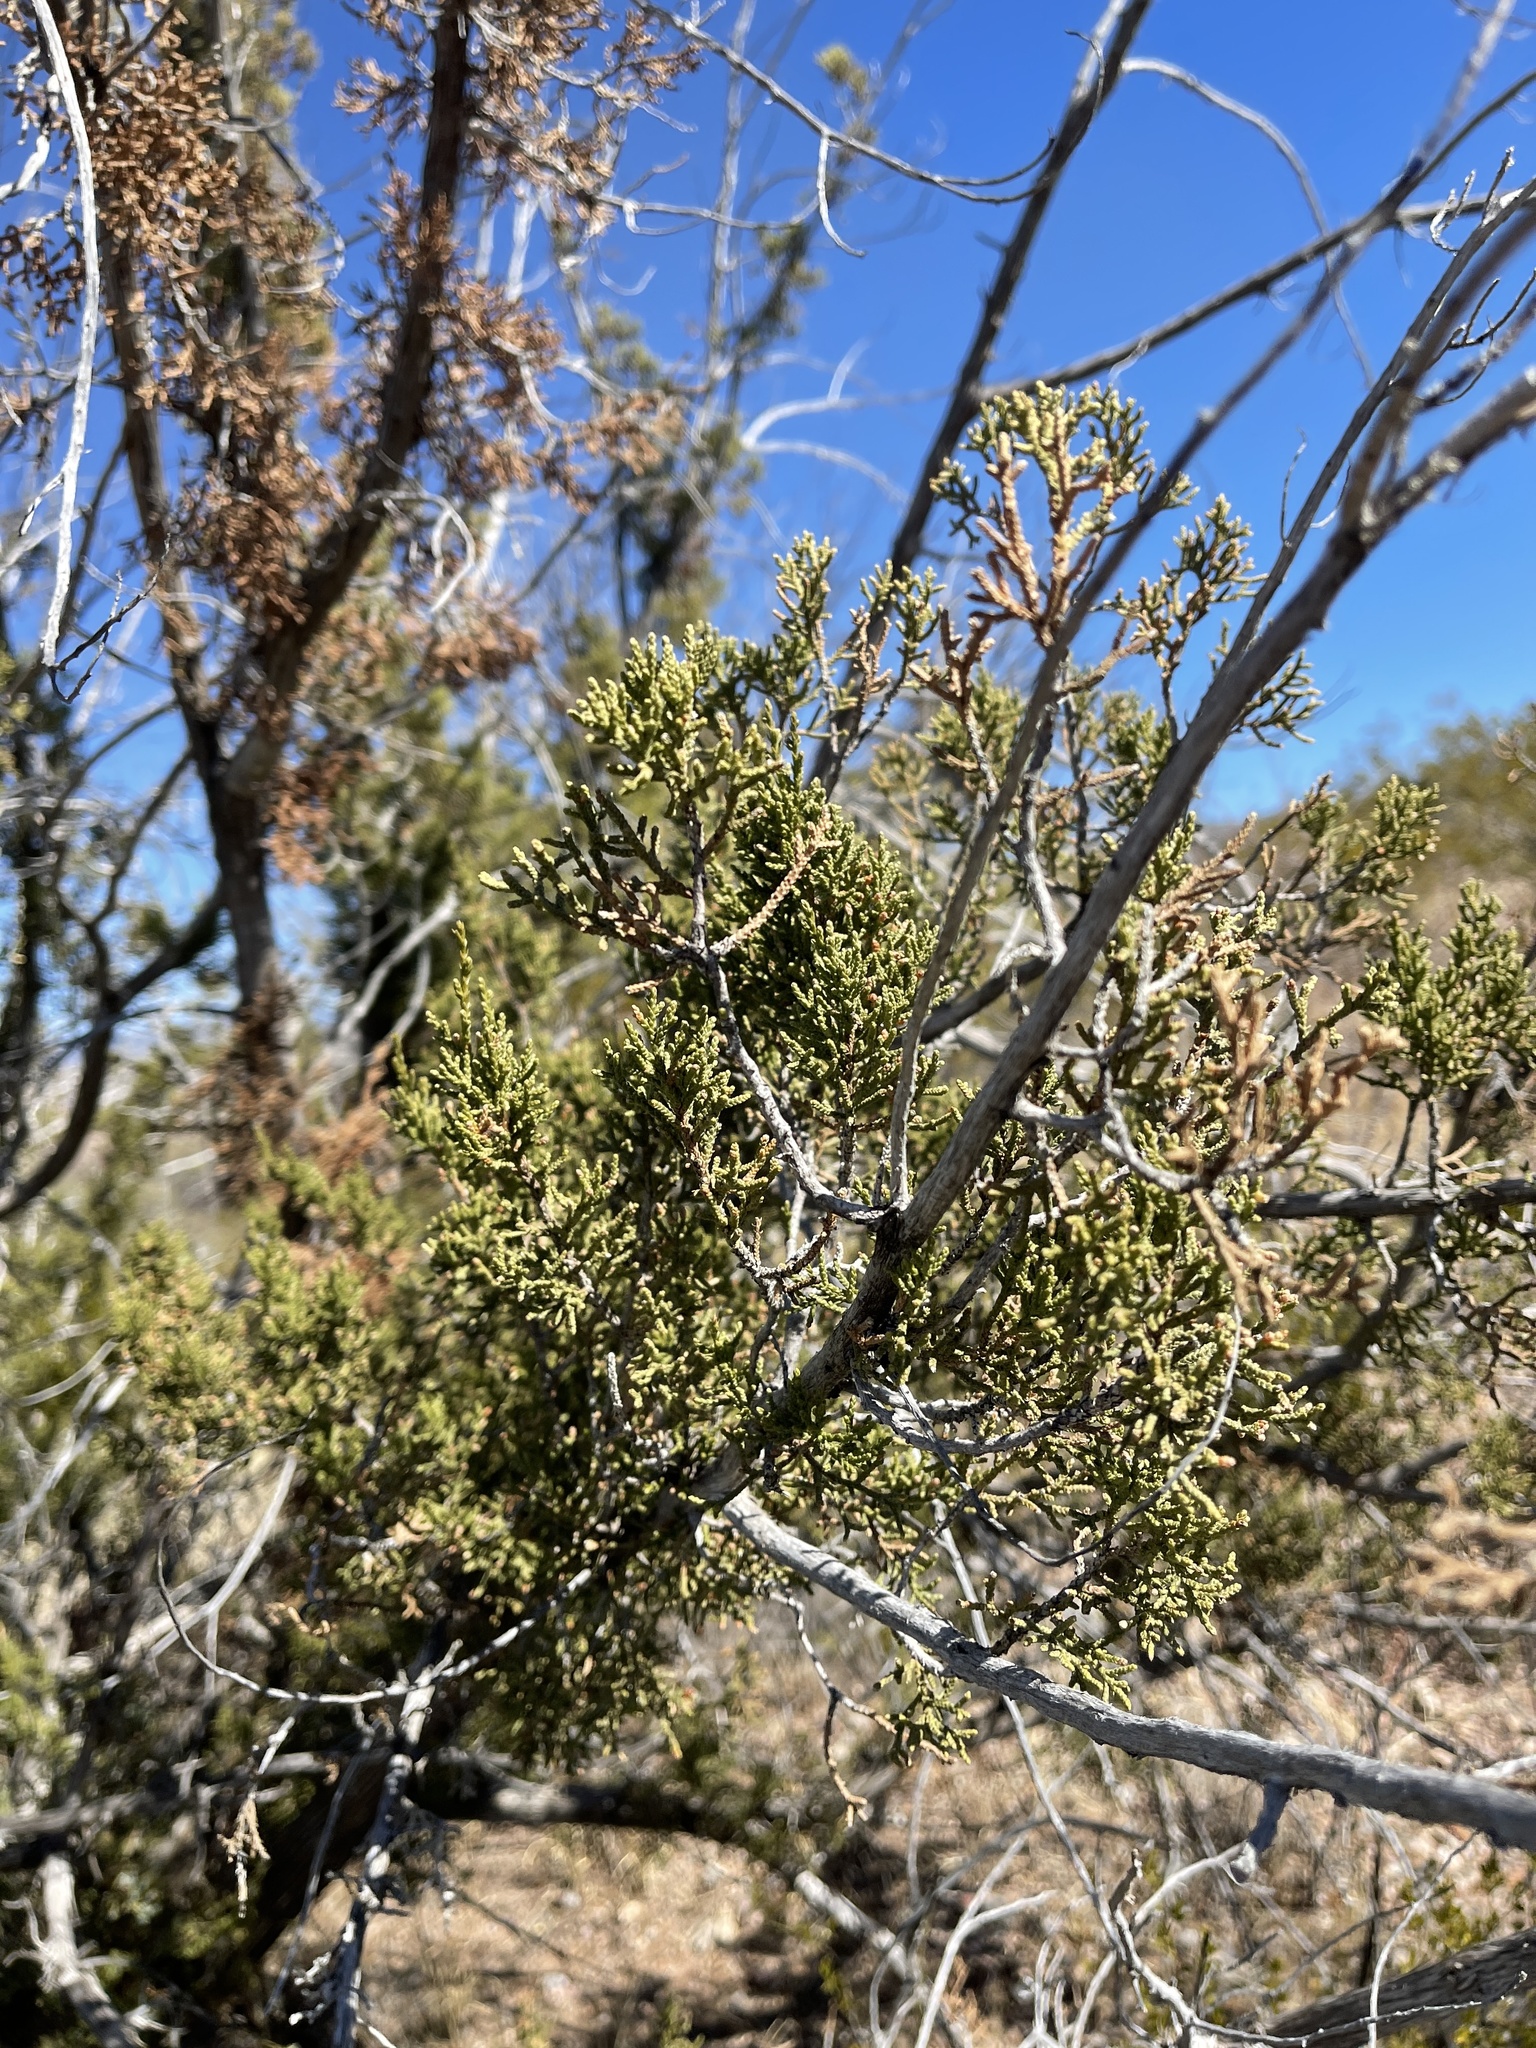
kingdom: Plantae
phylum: Tracheophyta
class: Pinopsida
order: Pinales
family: Cupressaceae
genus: Juniperus
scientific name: Juniperus monosperma
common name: One-seed juniper
